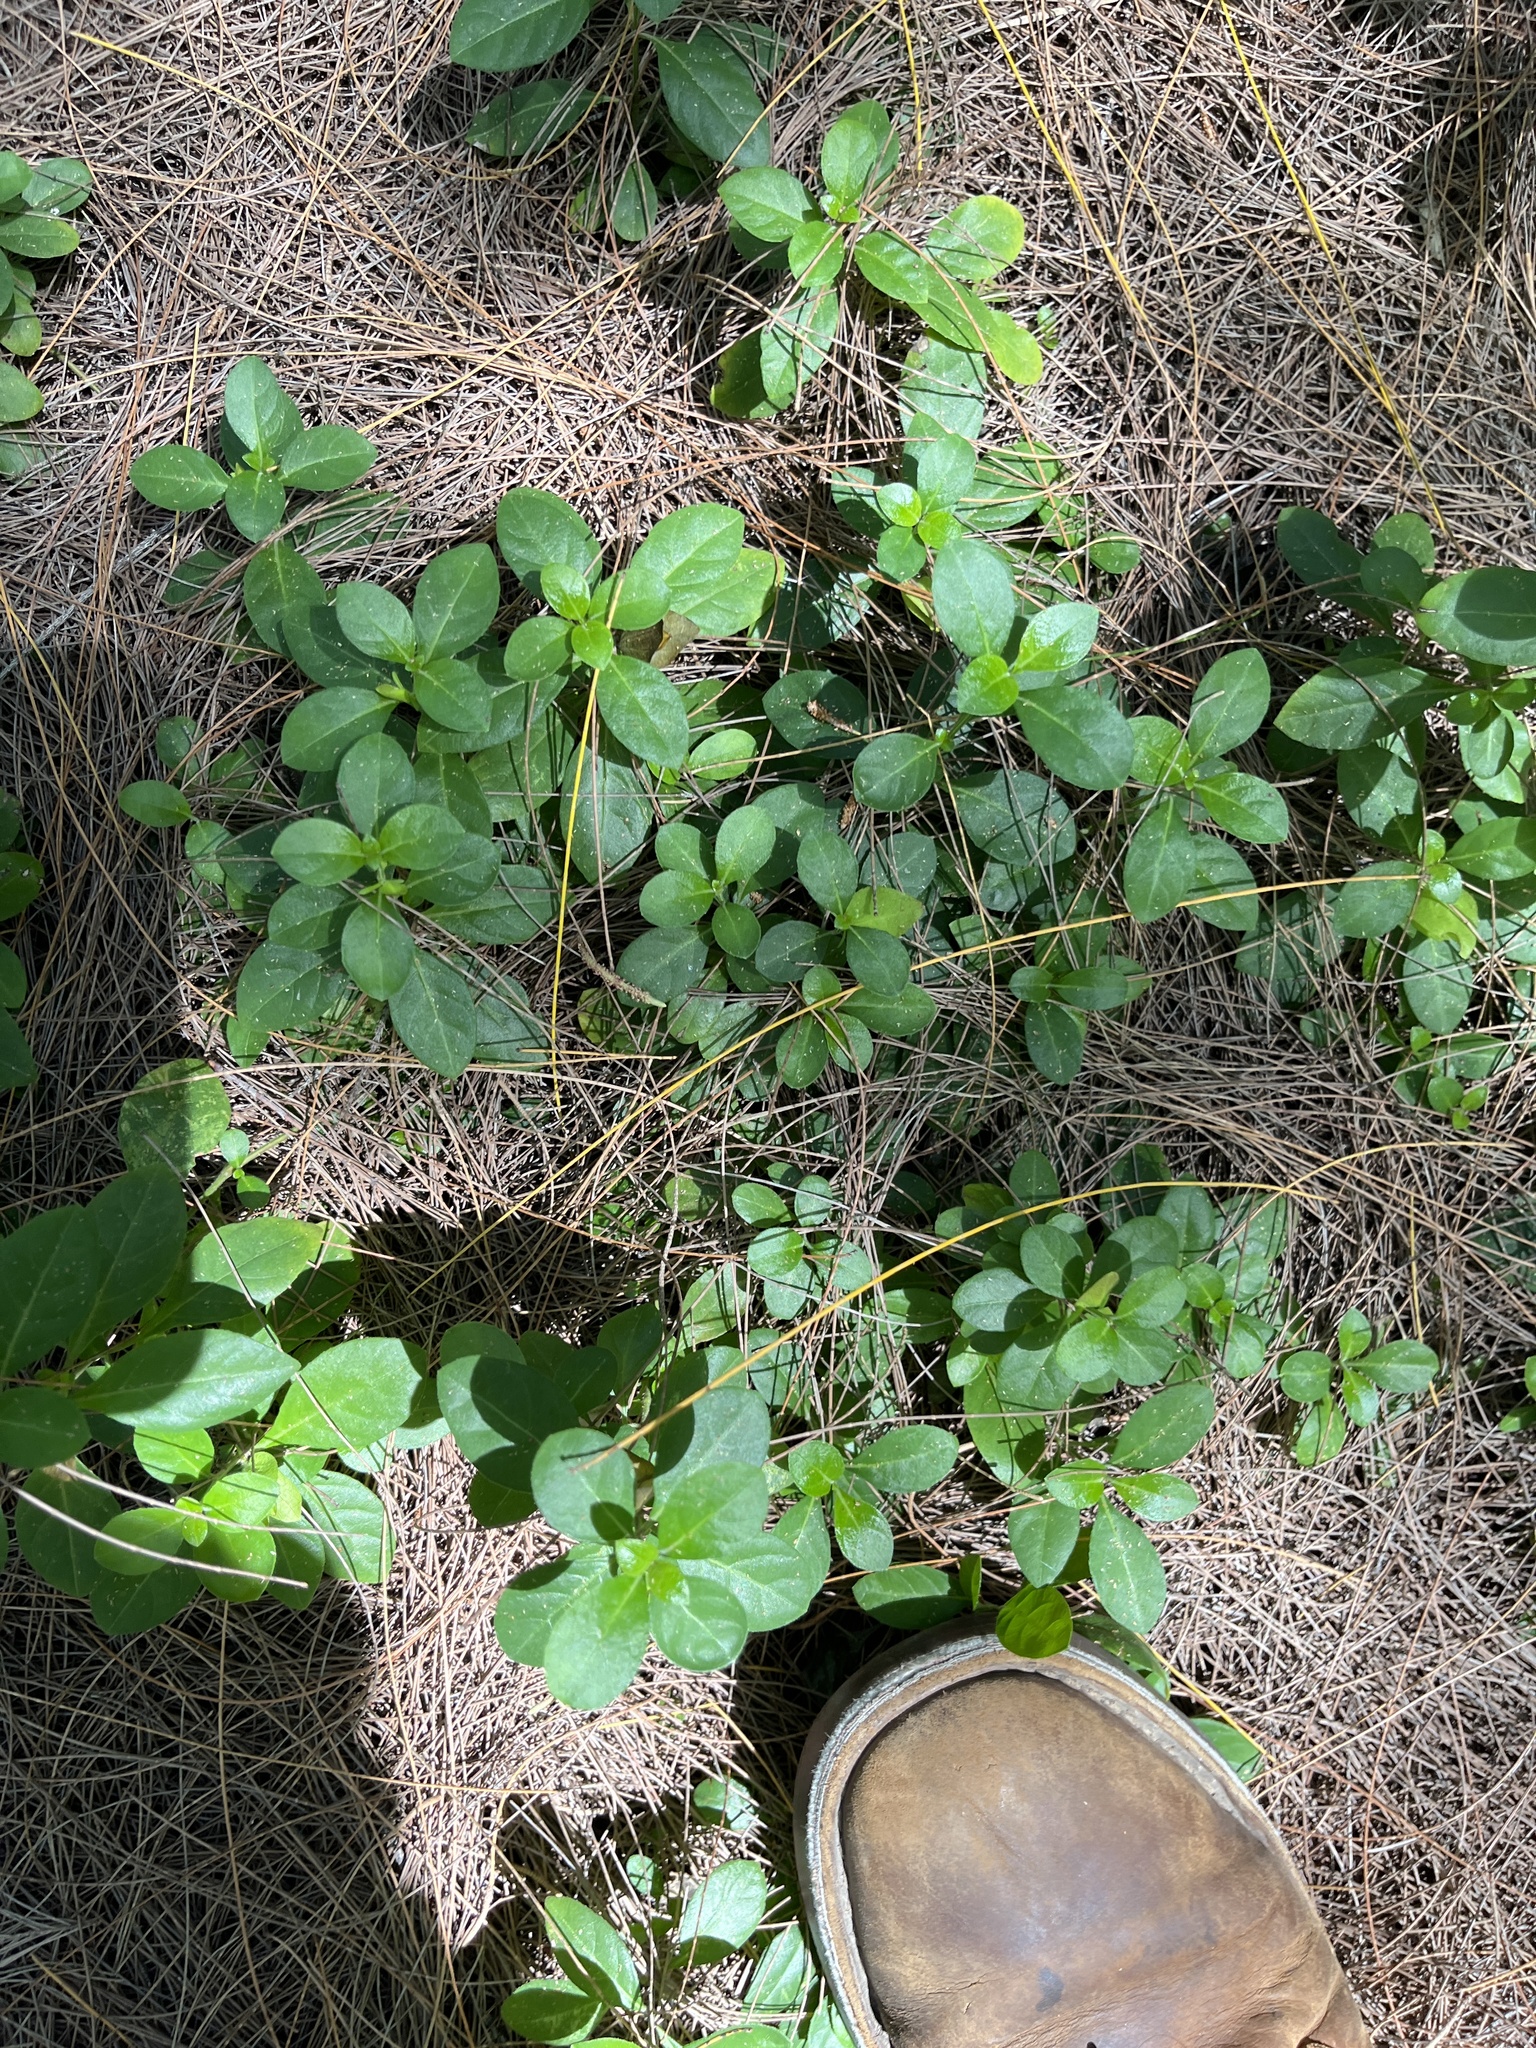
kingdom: Plantae
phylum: Tracheophyta
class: Magnoliopsida
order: Lamiales
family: Acanthaceae
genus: Barleria
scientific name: Barleria repens
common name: Pink-ruellia
